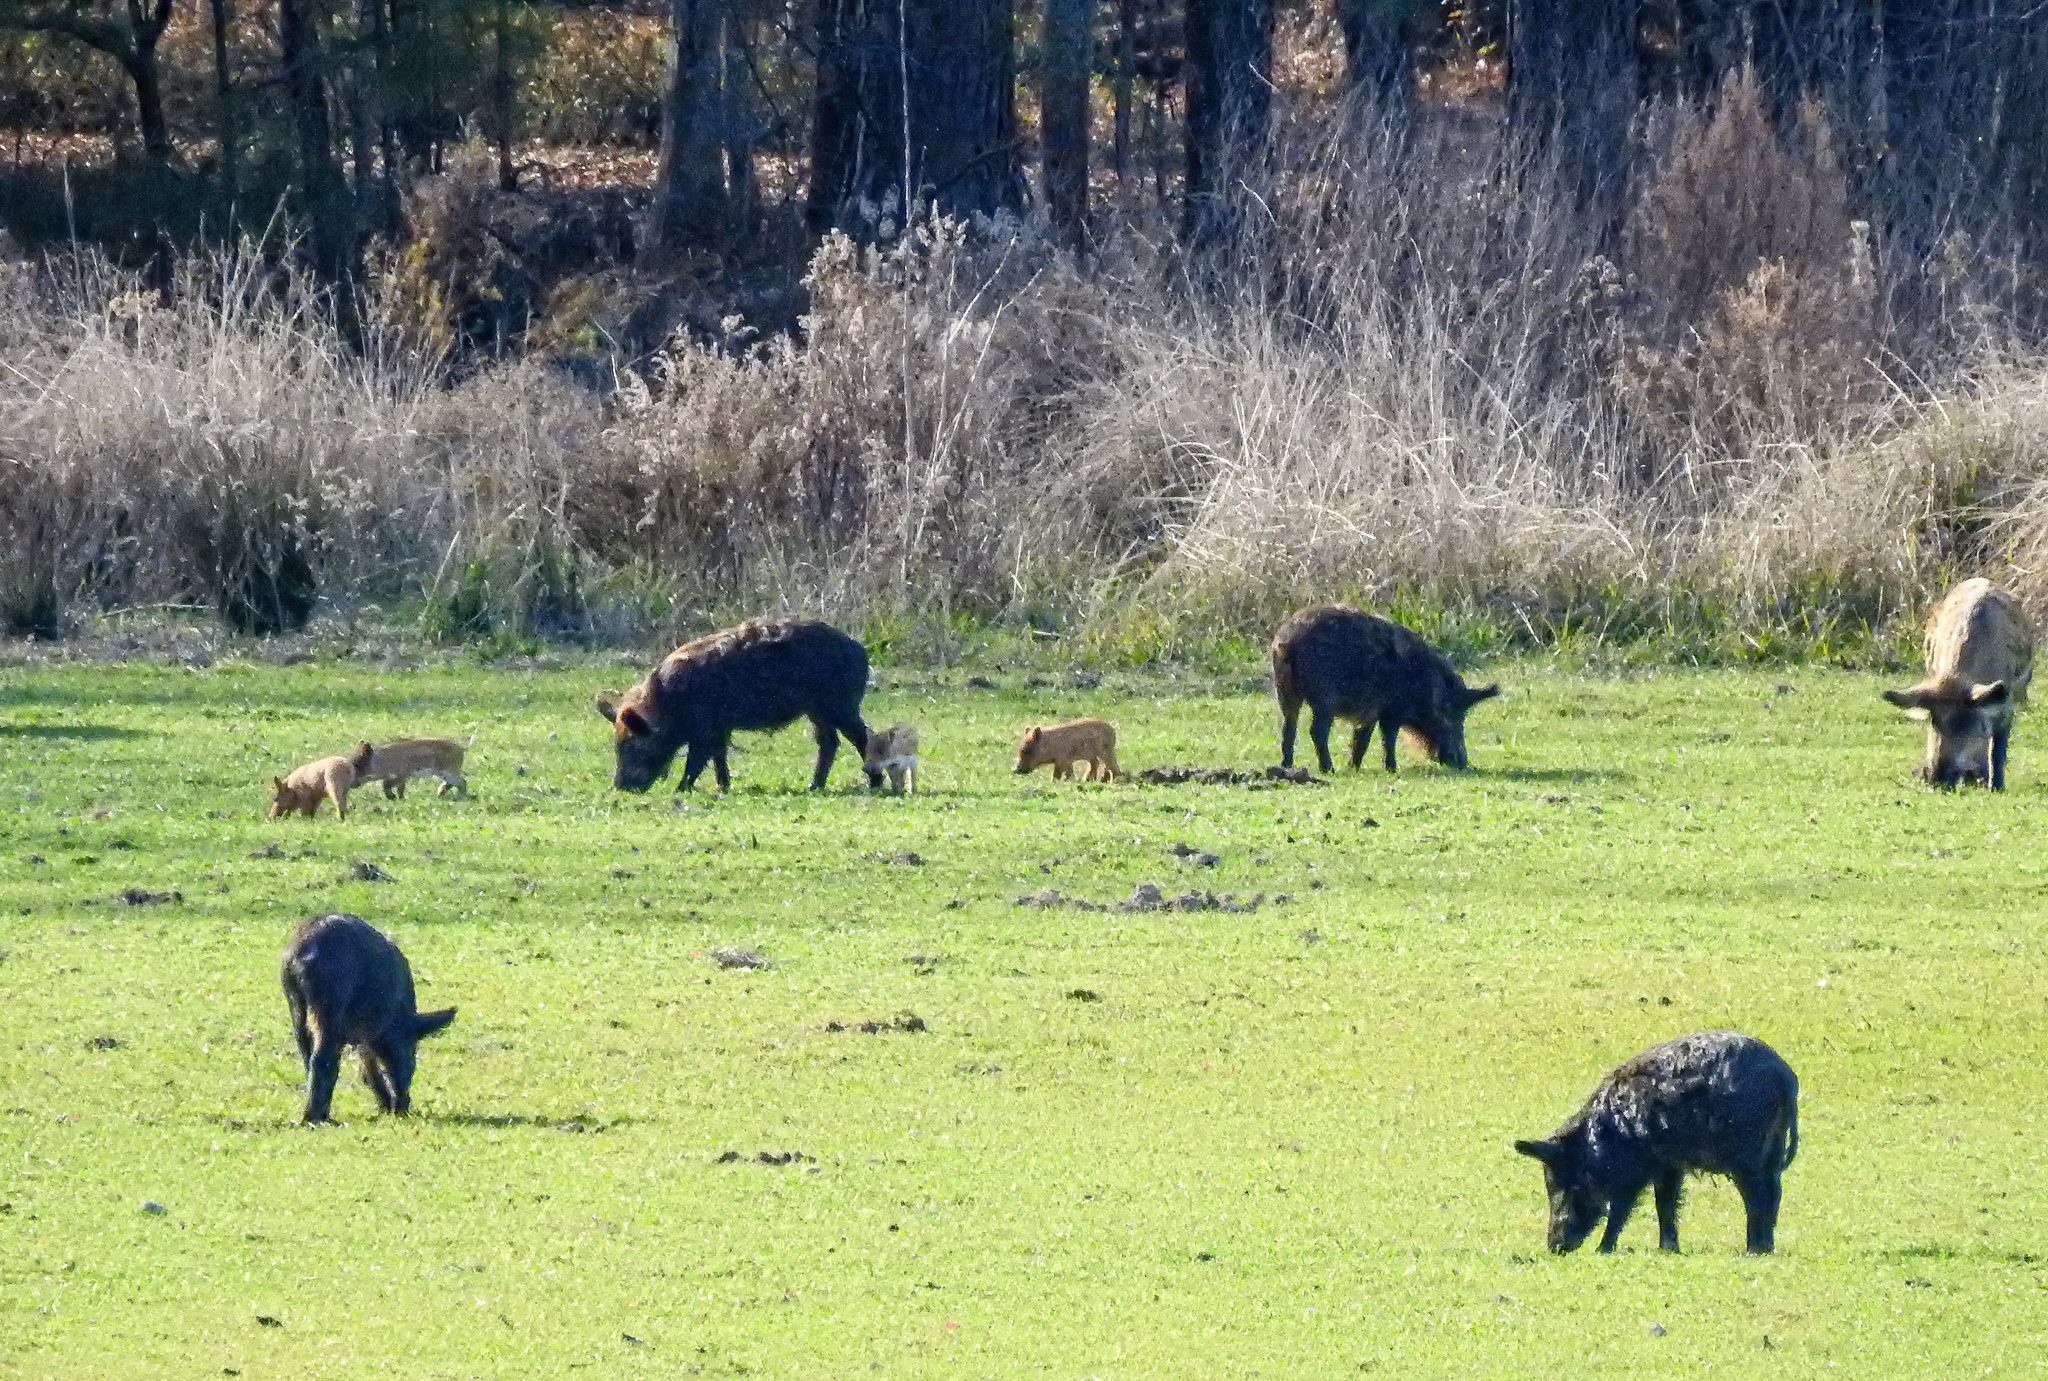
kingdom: Animalia
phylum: Chordata
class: Mammalia
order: Artiodactyla
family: Suidae
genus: Sus
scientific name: Sus scrofa
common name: Wild boar
